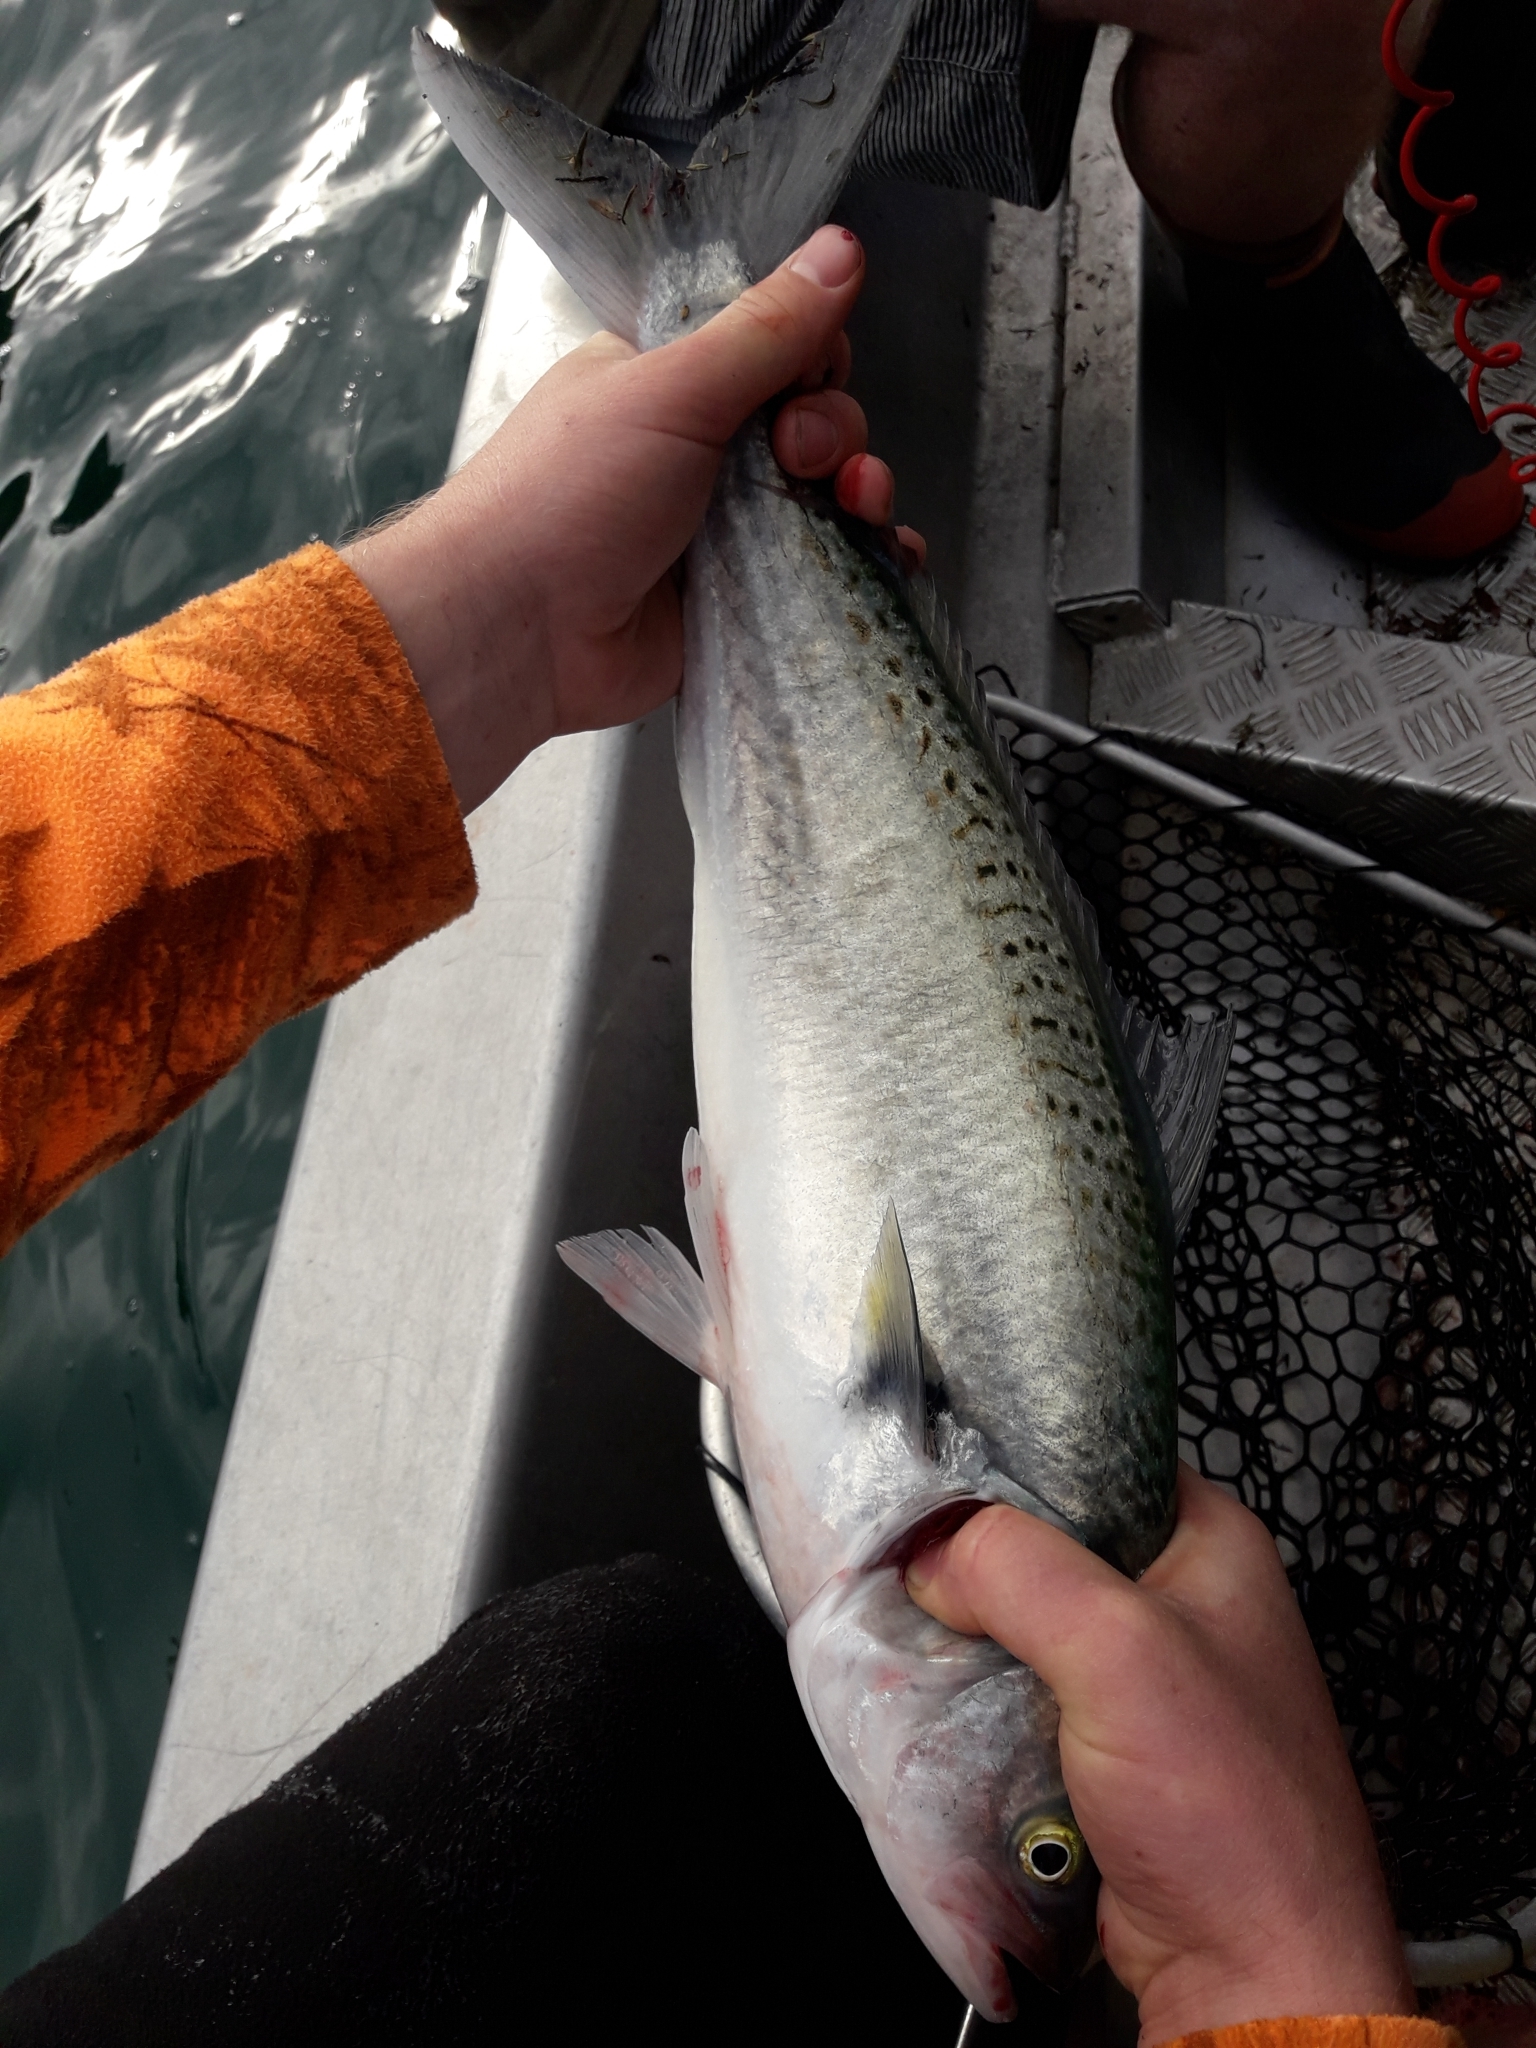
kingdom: Animalia
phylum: Chordata
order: Perciformes
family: Arripidae
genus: Arripis
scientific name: Arripis trutta
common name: Kahawai
